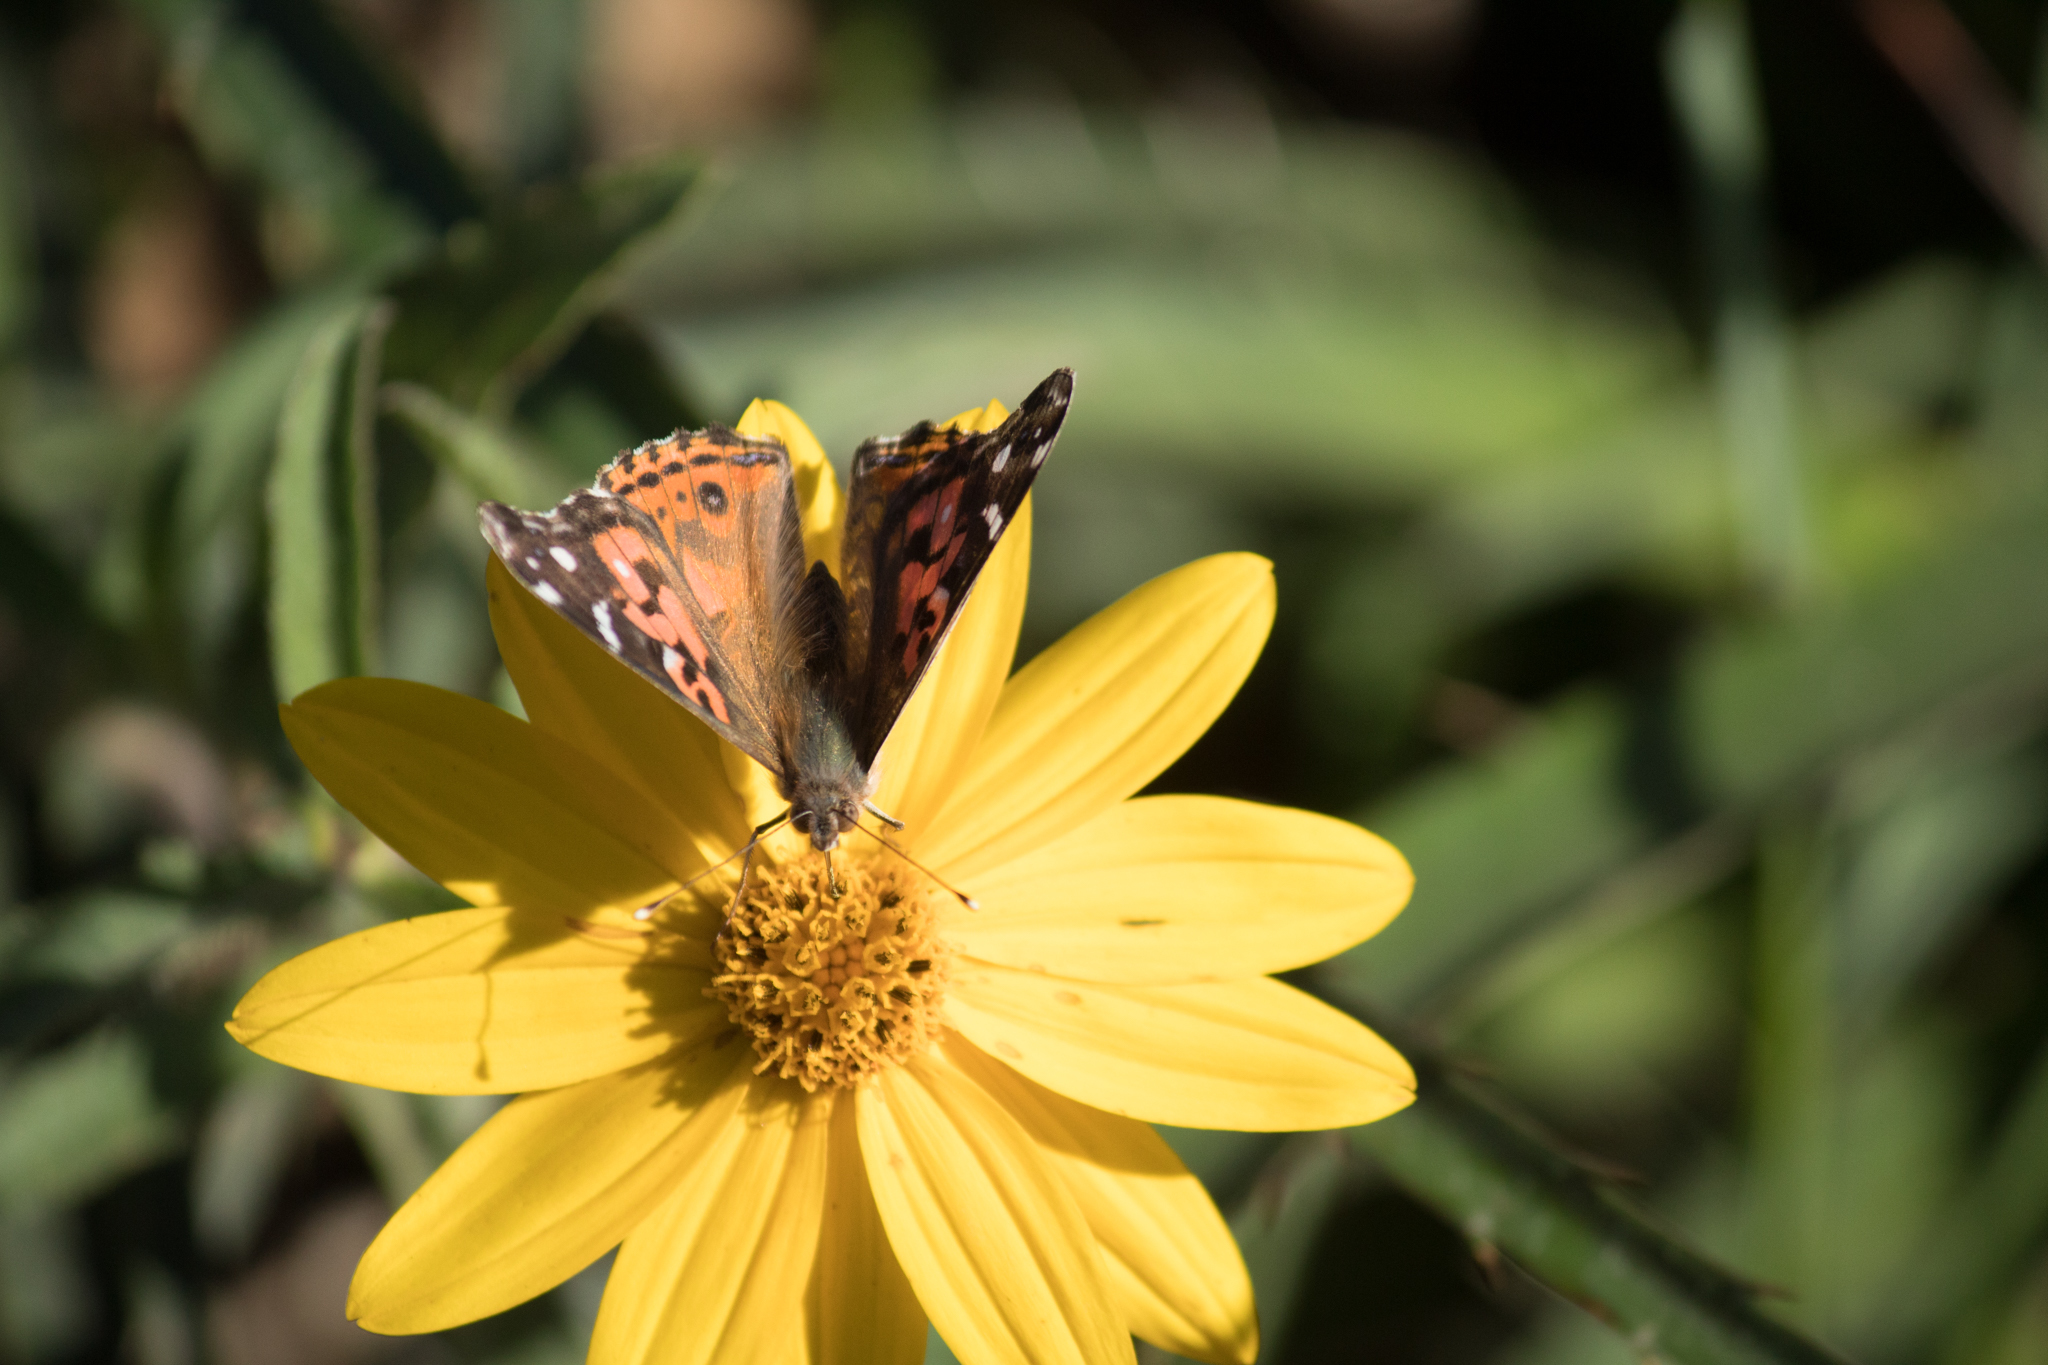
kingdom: Animalia
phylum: Arthropoda
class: Insecta
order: Lepidoptera
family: Nymphalidae
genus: Vanessa
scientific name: Vanessa braziliensis
